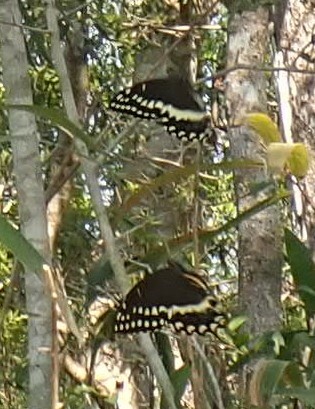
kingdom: Animalia
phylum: Arthropoda
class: Insecta
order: Lepidoptera
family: Papilionidae
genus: Papilio
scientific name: Papilio palamedes
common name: Palamedes swallowtail
